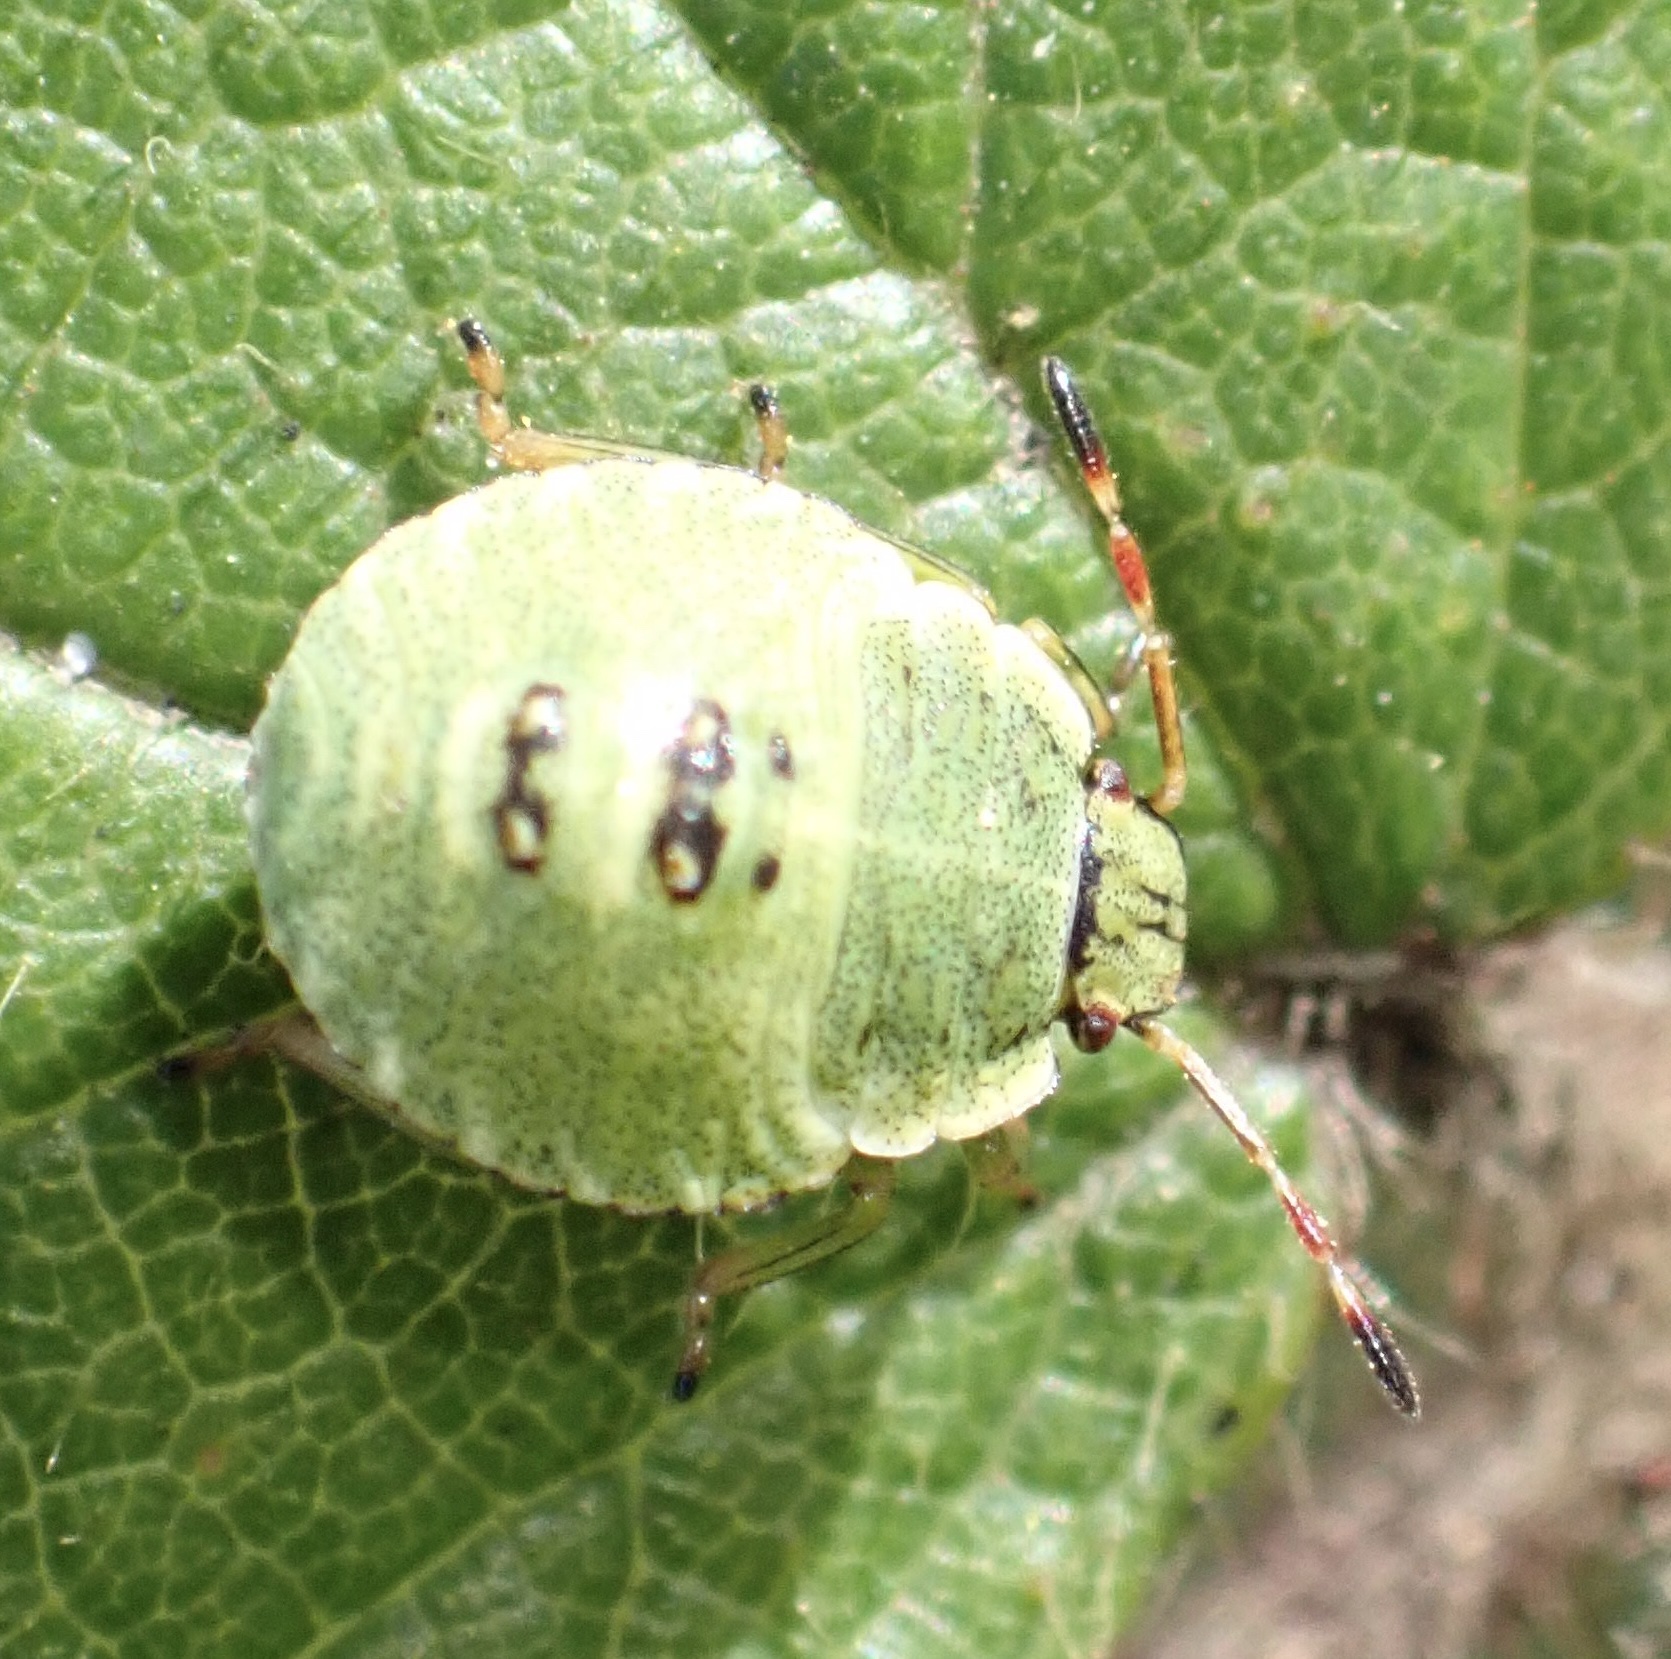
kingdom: Animalia
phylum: Arthropoda
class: Insecta
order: Hemiptera
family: Pentatomidae
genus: Palomena
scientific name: Palomena prasina
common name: Green shieldbug
